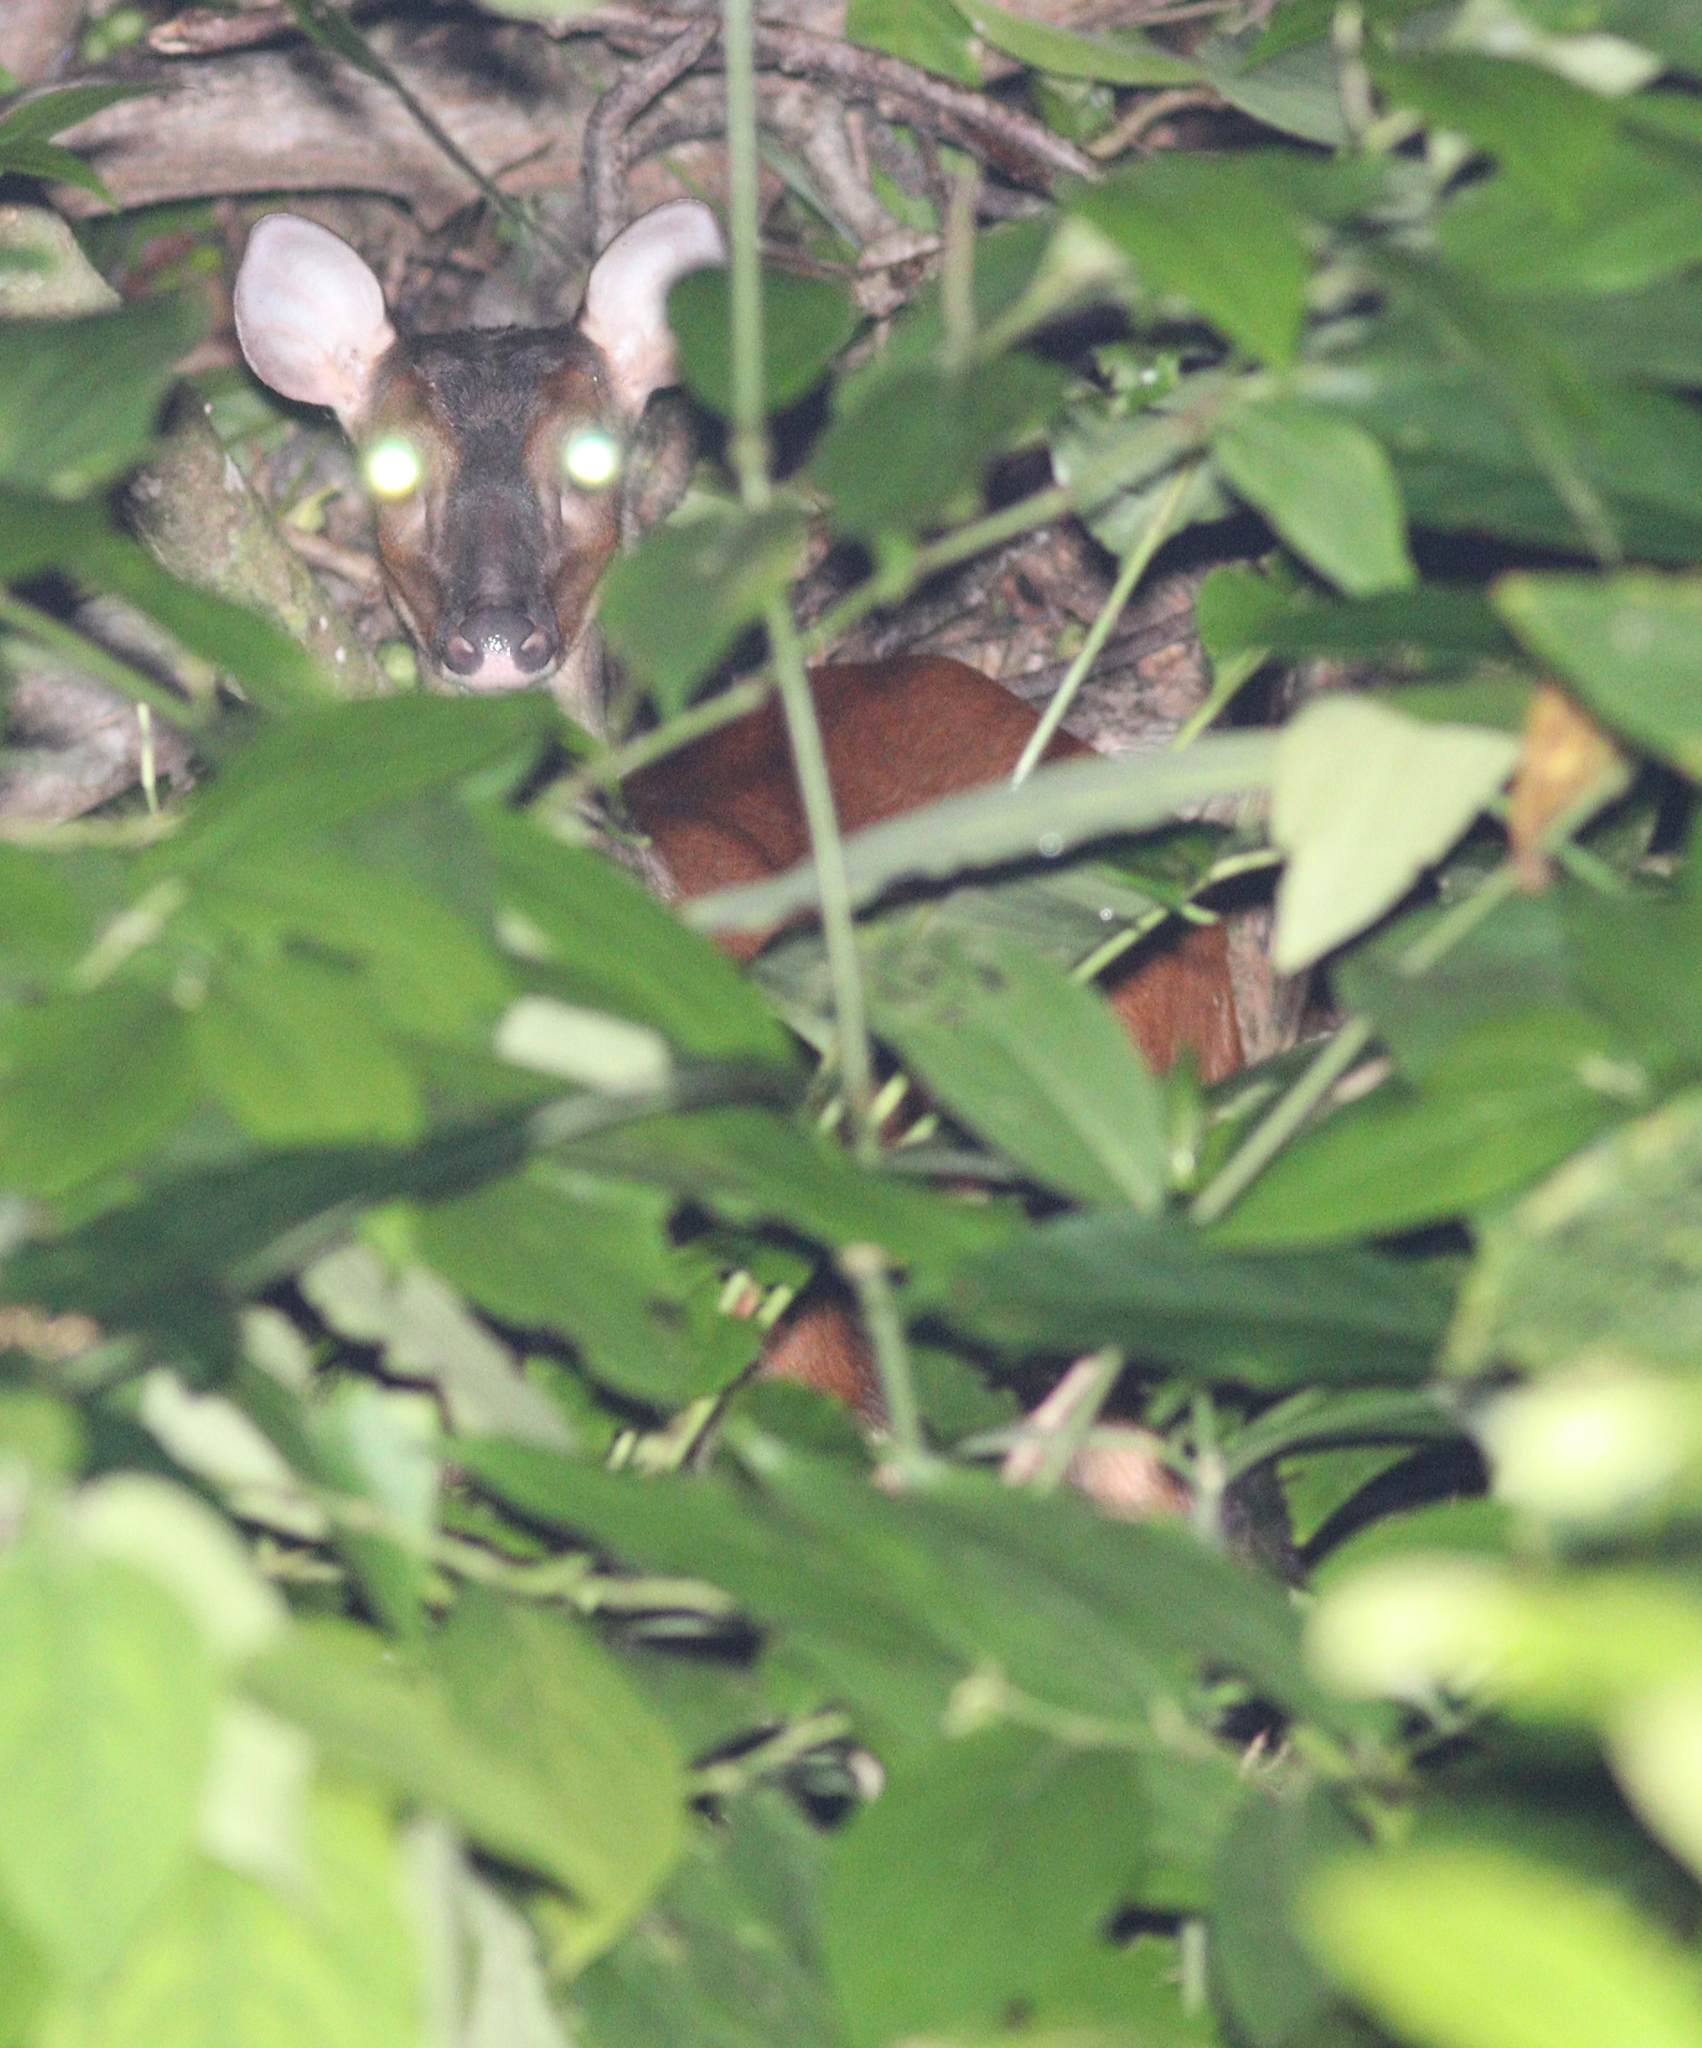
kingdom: Animalia
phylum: Chordata
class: Mammalia
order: Artiodactyla
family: Cervidae
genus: Mazama
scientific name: Mazama temama
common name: Central american red brocket
